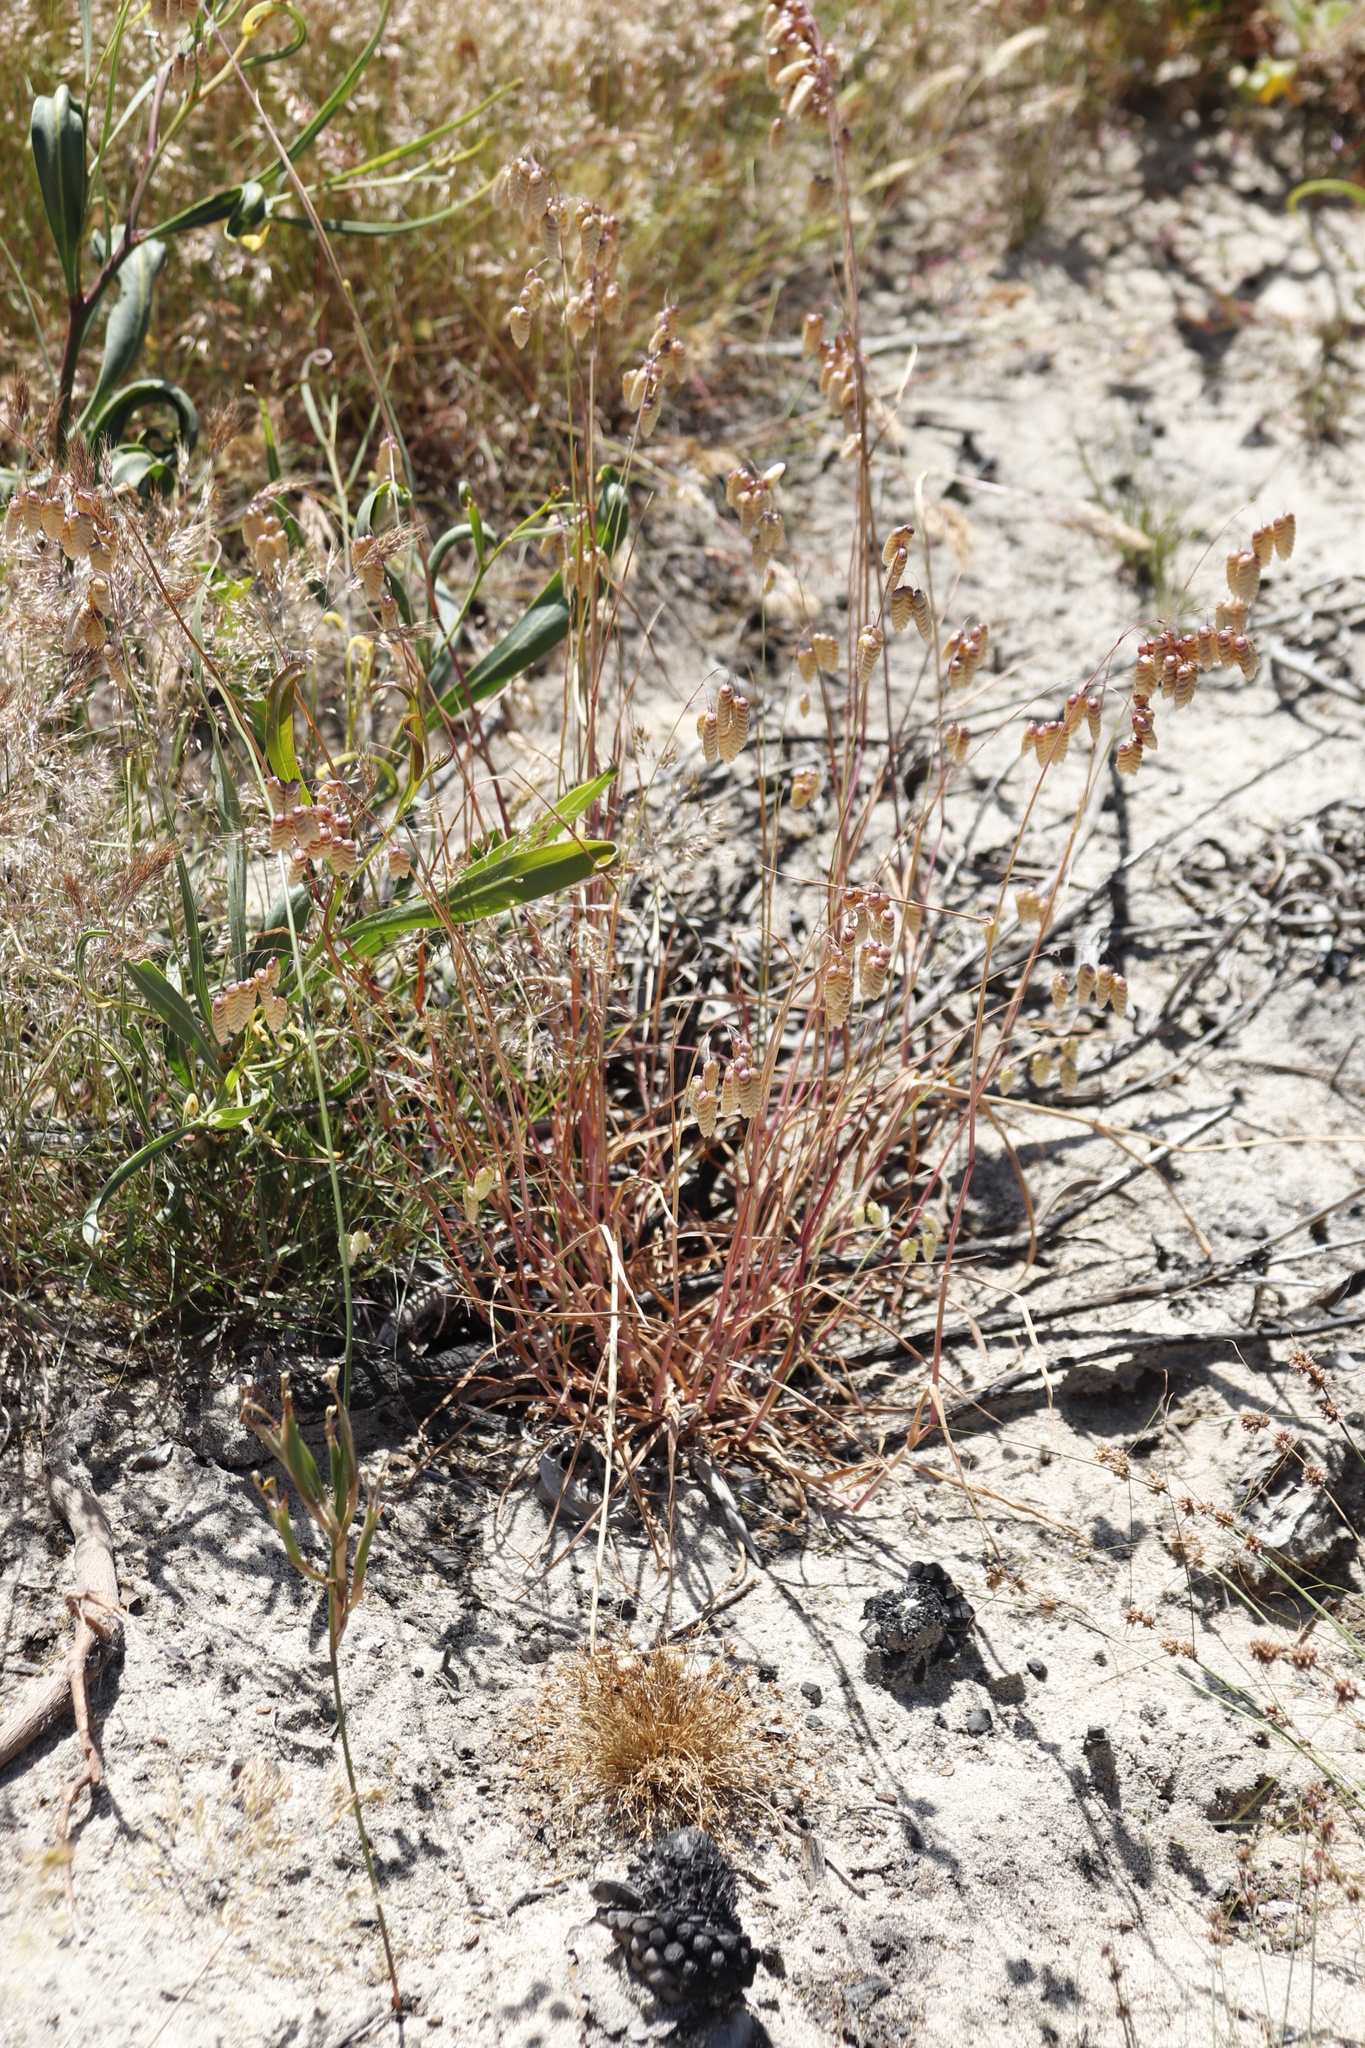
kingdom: Plantae
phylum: Tracheophyta
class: Liliopsida
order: Poales
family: Poaceae
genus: Briza
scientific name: Briza maxima
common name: Big quakinggrass
